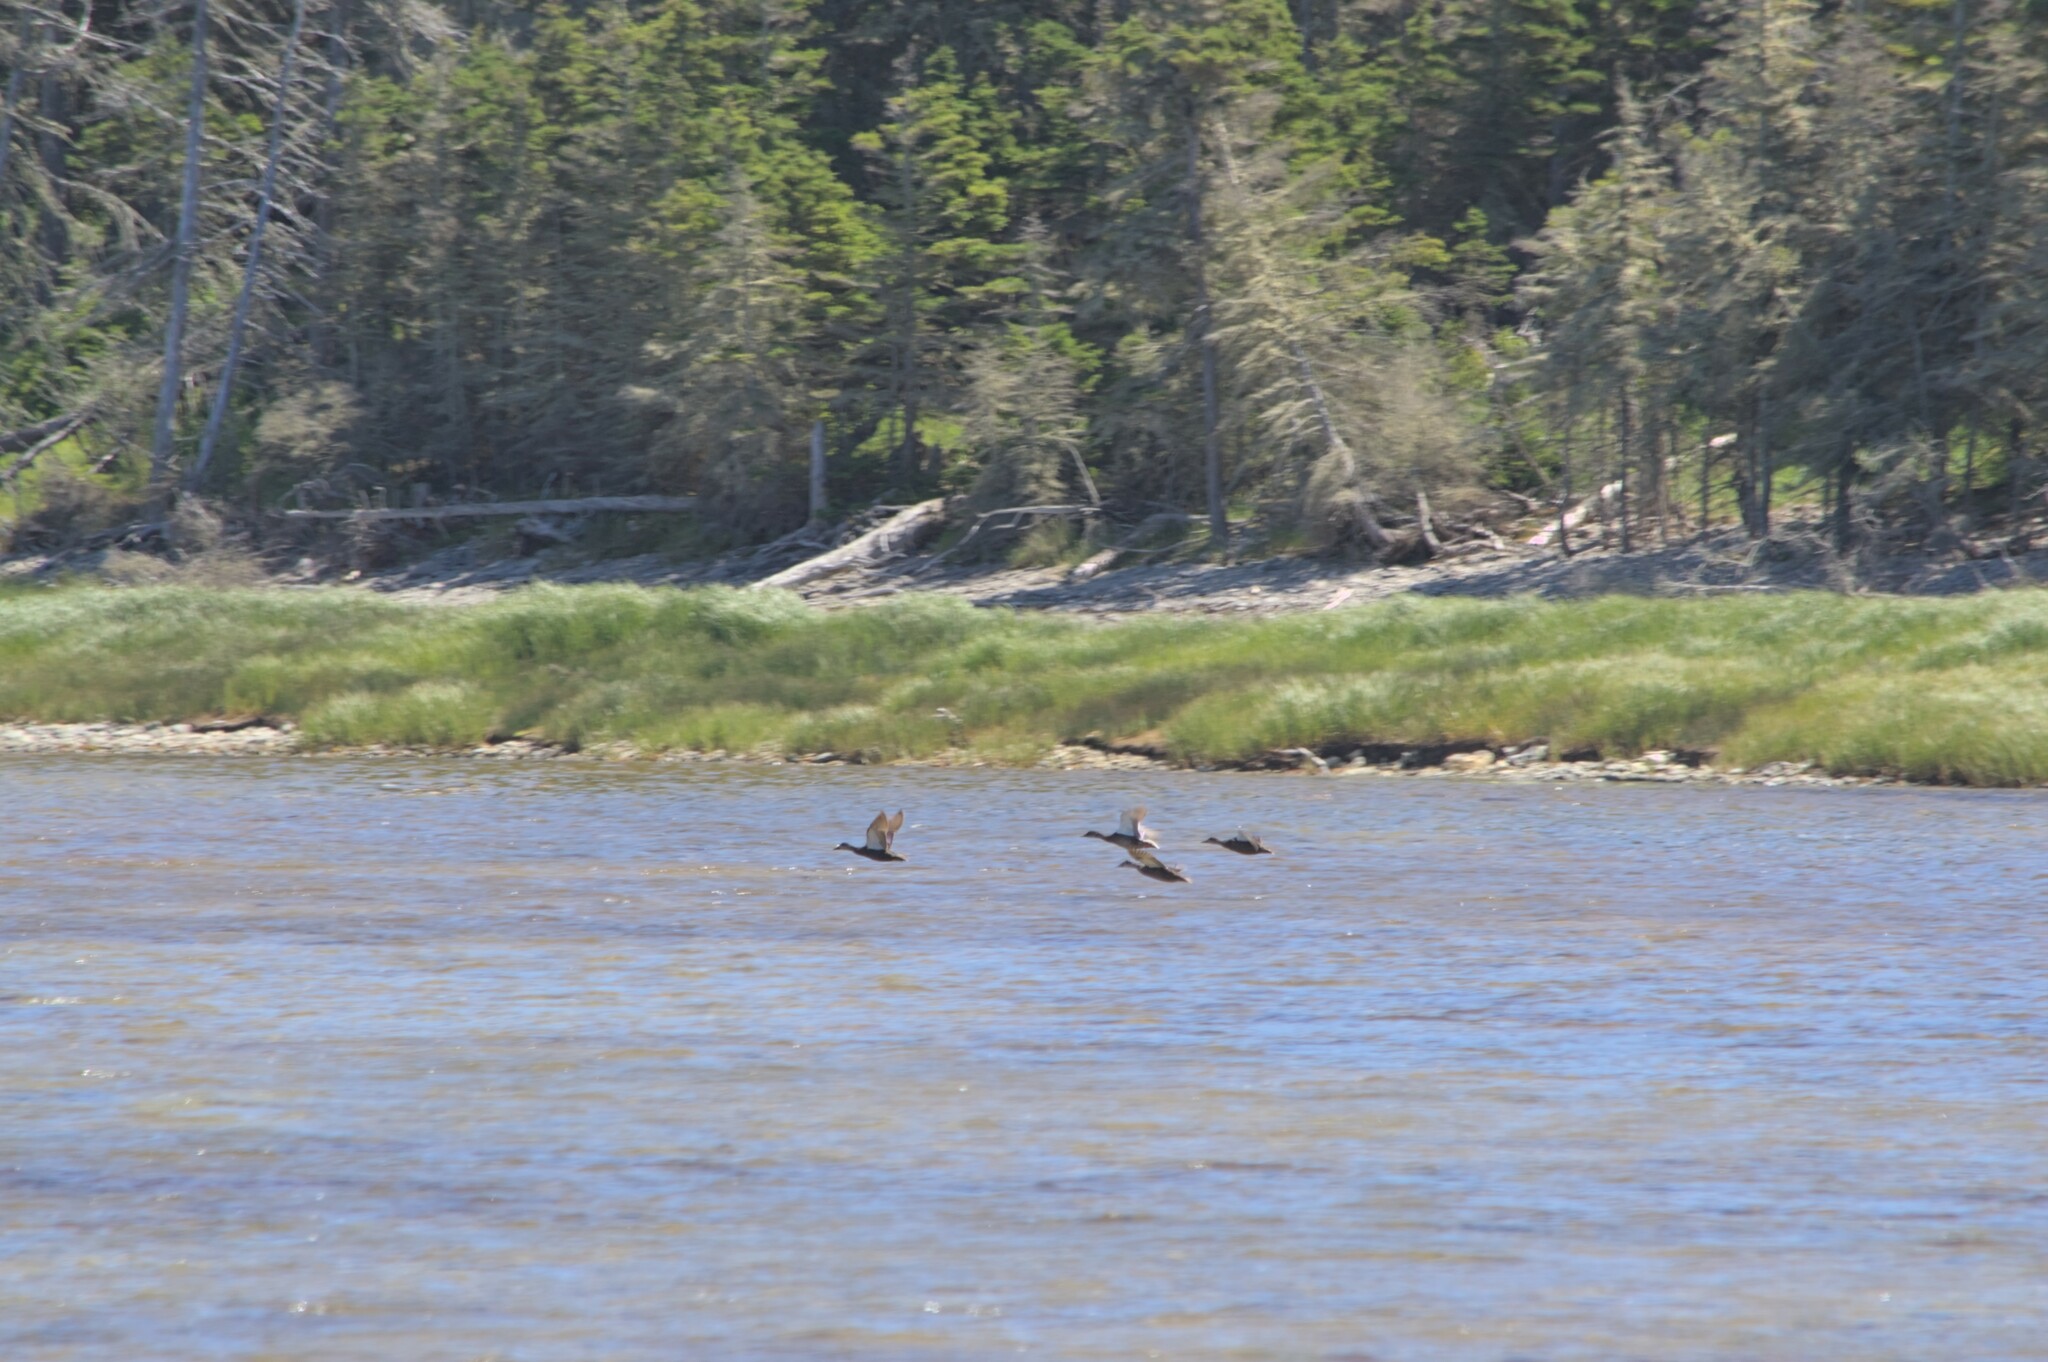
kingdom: Animalia
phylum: Chordata
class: Aves
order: Anseriformes
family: Anatidae
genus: Anas
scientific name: Anas rubripes
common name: American black duck
